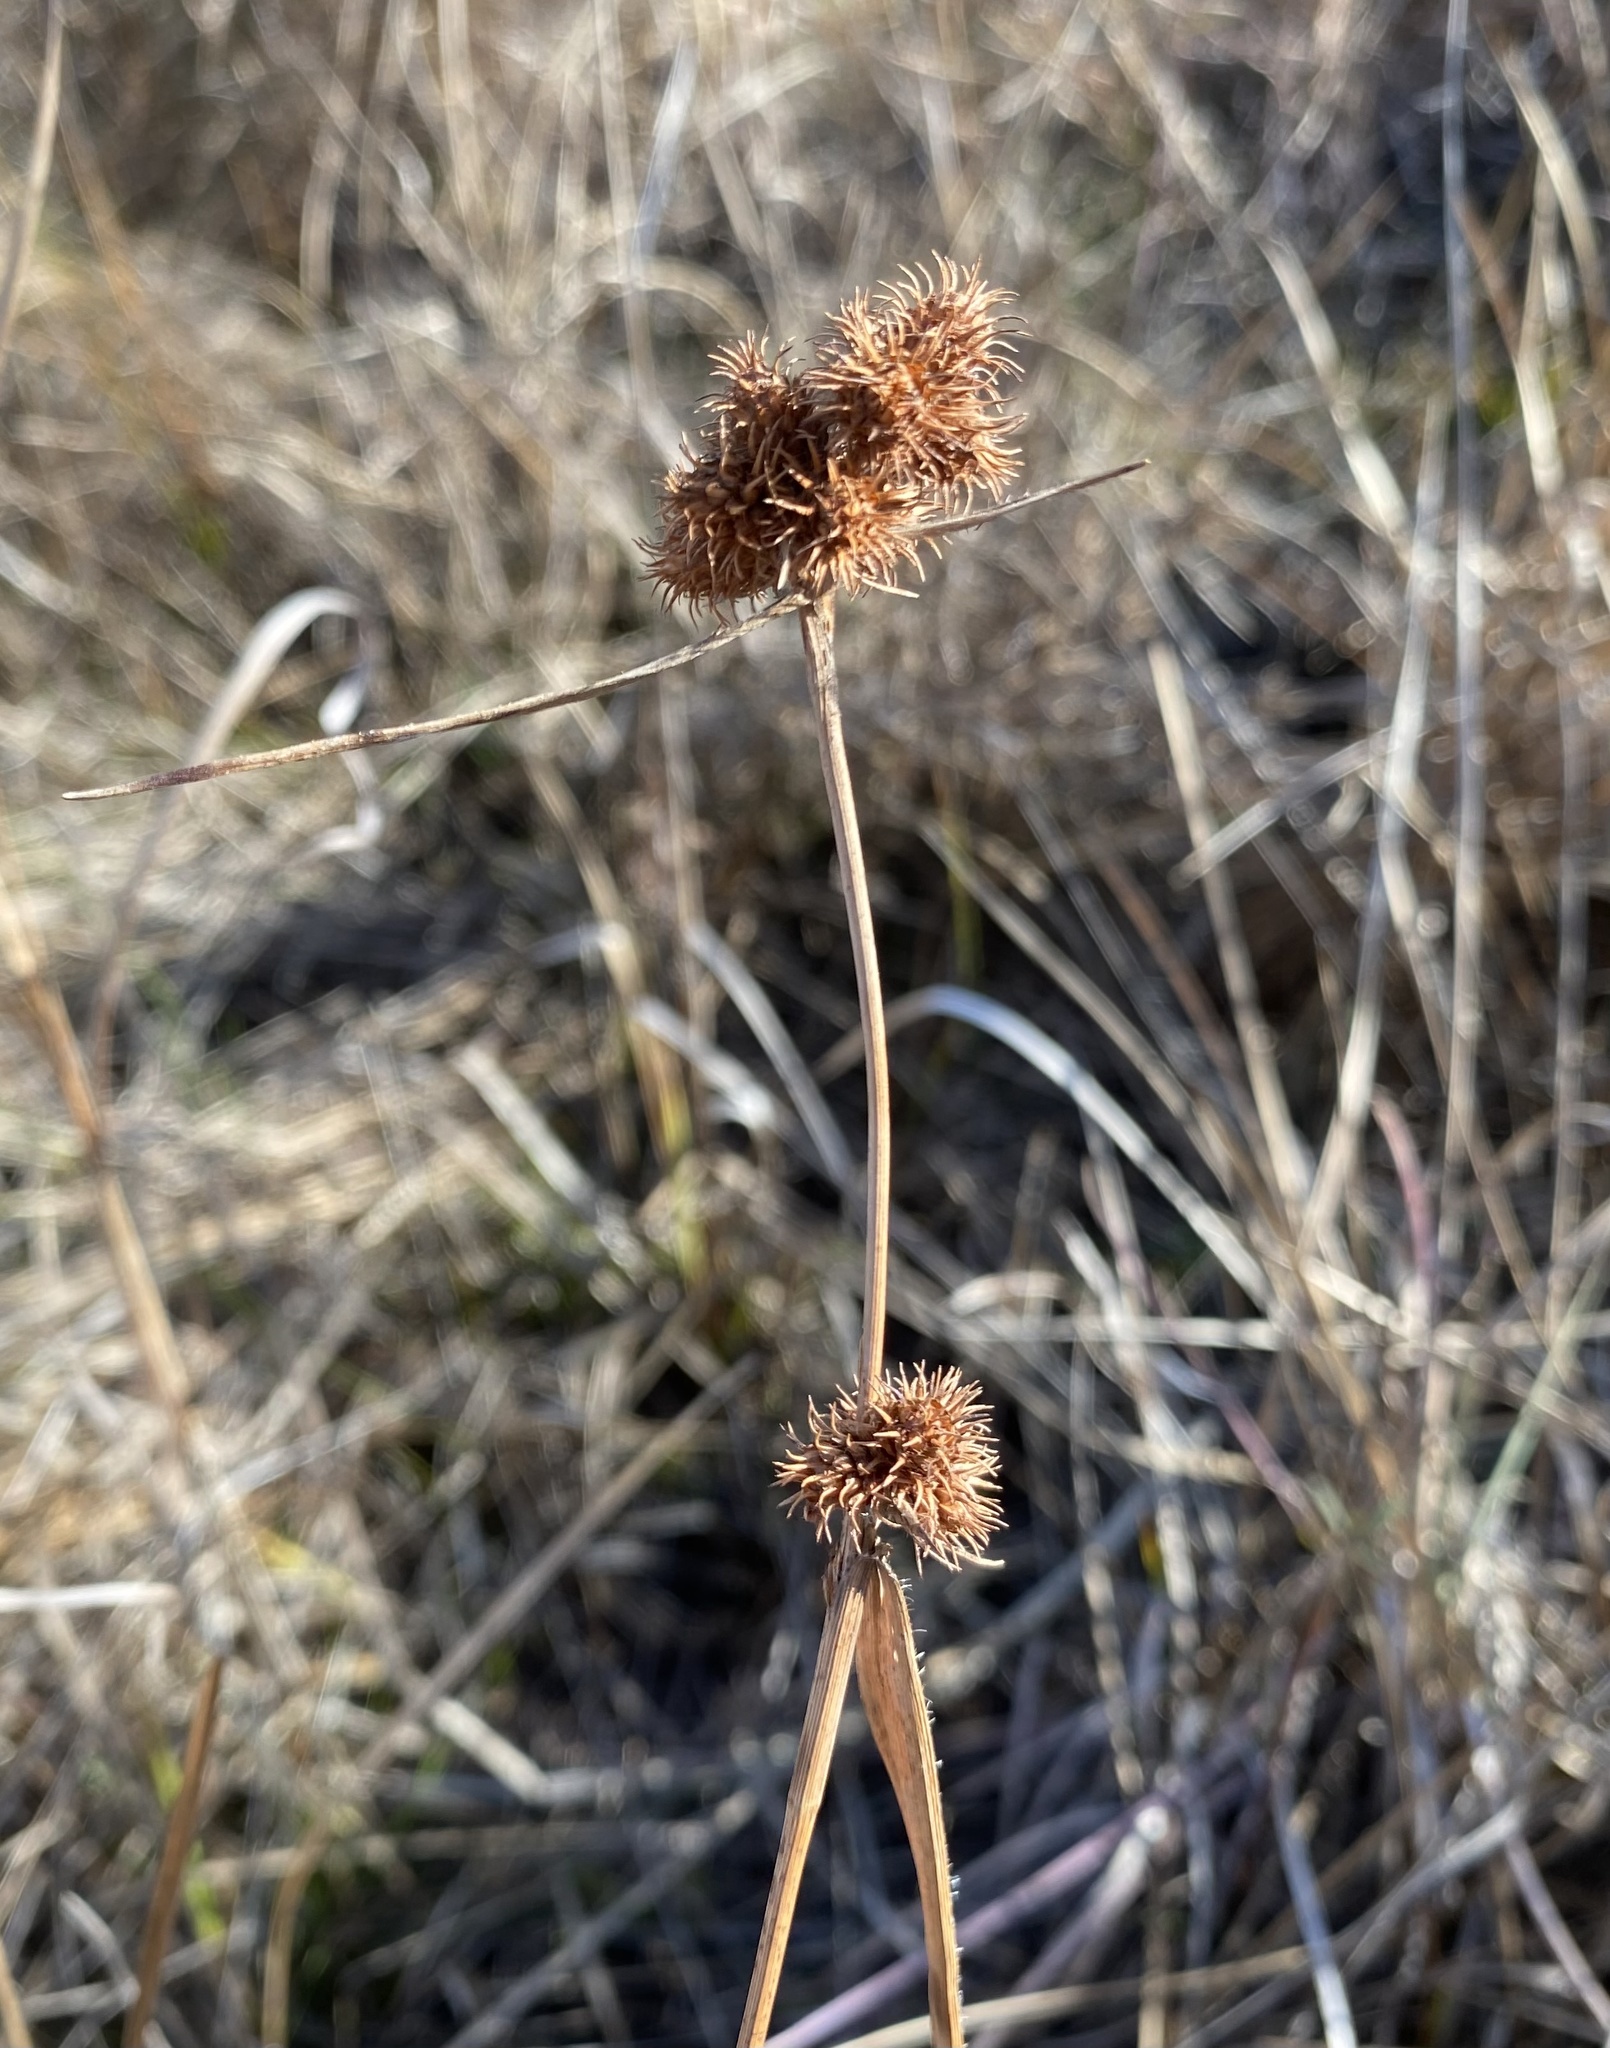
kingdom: Plantae
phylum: Tracheophyta
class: Liliopsida
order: Poales
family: Cyperaceae
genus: Fuirena
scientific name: Fuirena squarrosa
